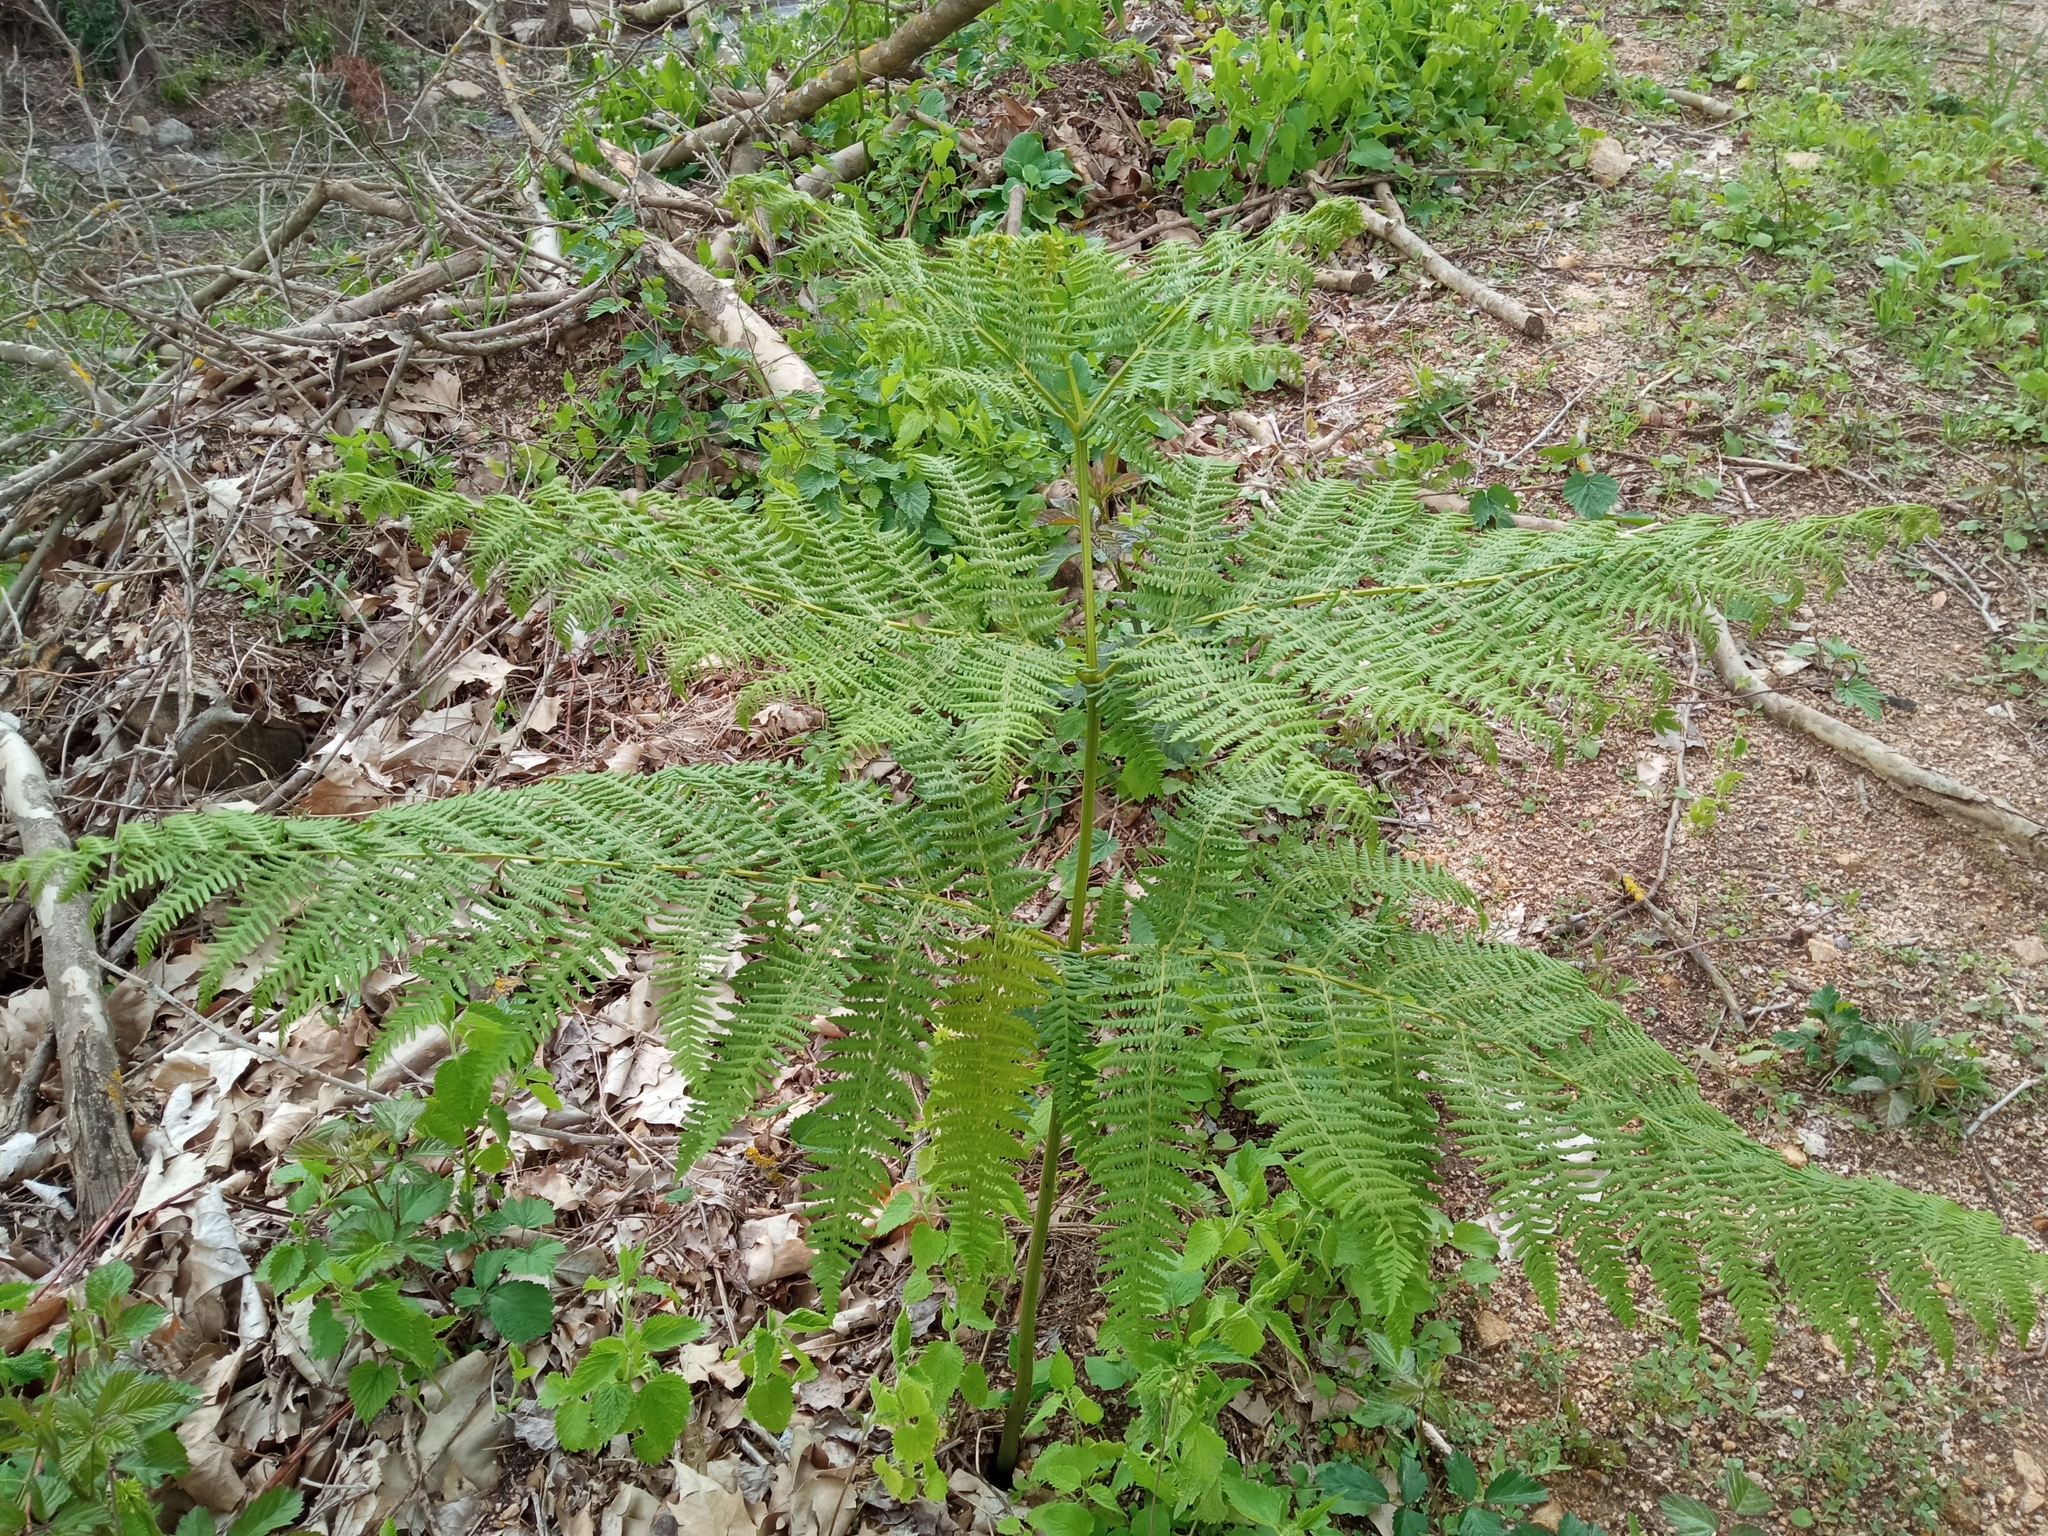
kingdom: Plantae
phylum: Tracheophyta
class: Polypodiopsida
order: Polypodiales
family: Dennstaedtiaceae
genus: Pteridium
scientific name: Pteridium aquilinum
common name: Bracken
